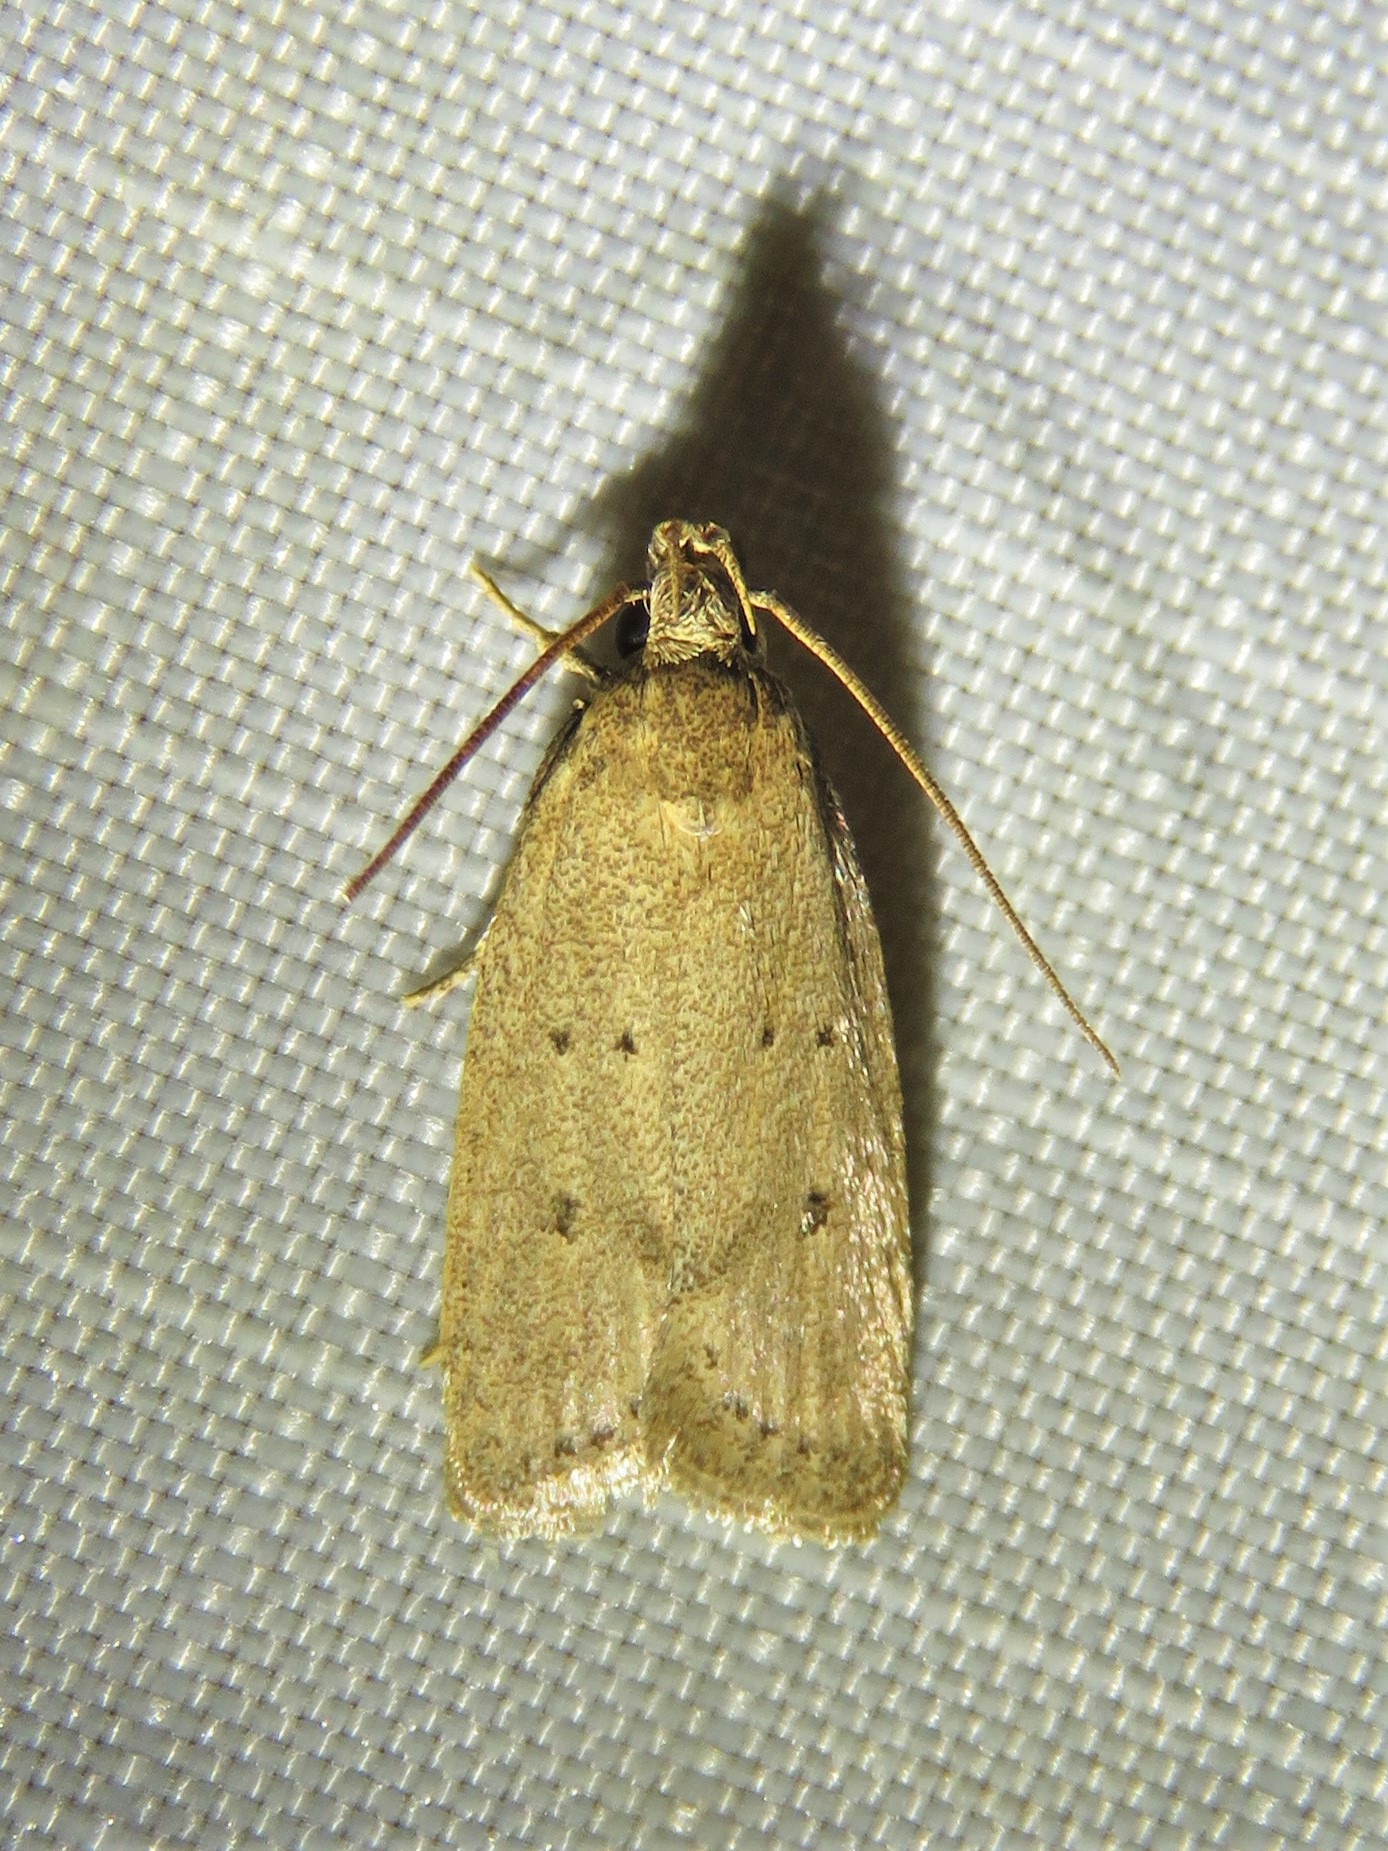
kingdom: Animalia
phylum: Arthropoda
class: Insecta
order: Lepidoptera
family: Autostichidae
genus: Autosticha
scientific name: Autosticha kyotensis
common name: Kyoto moth
